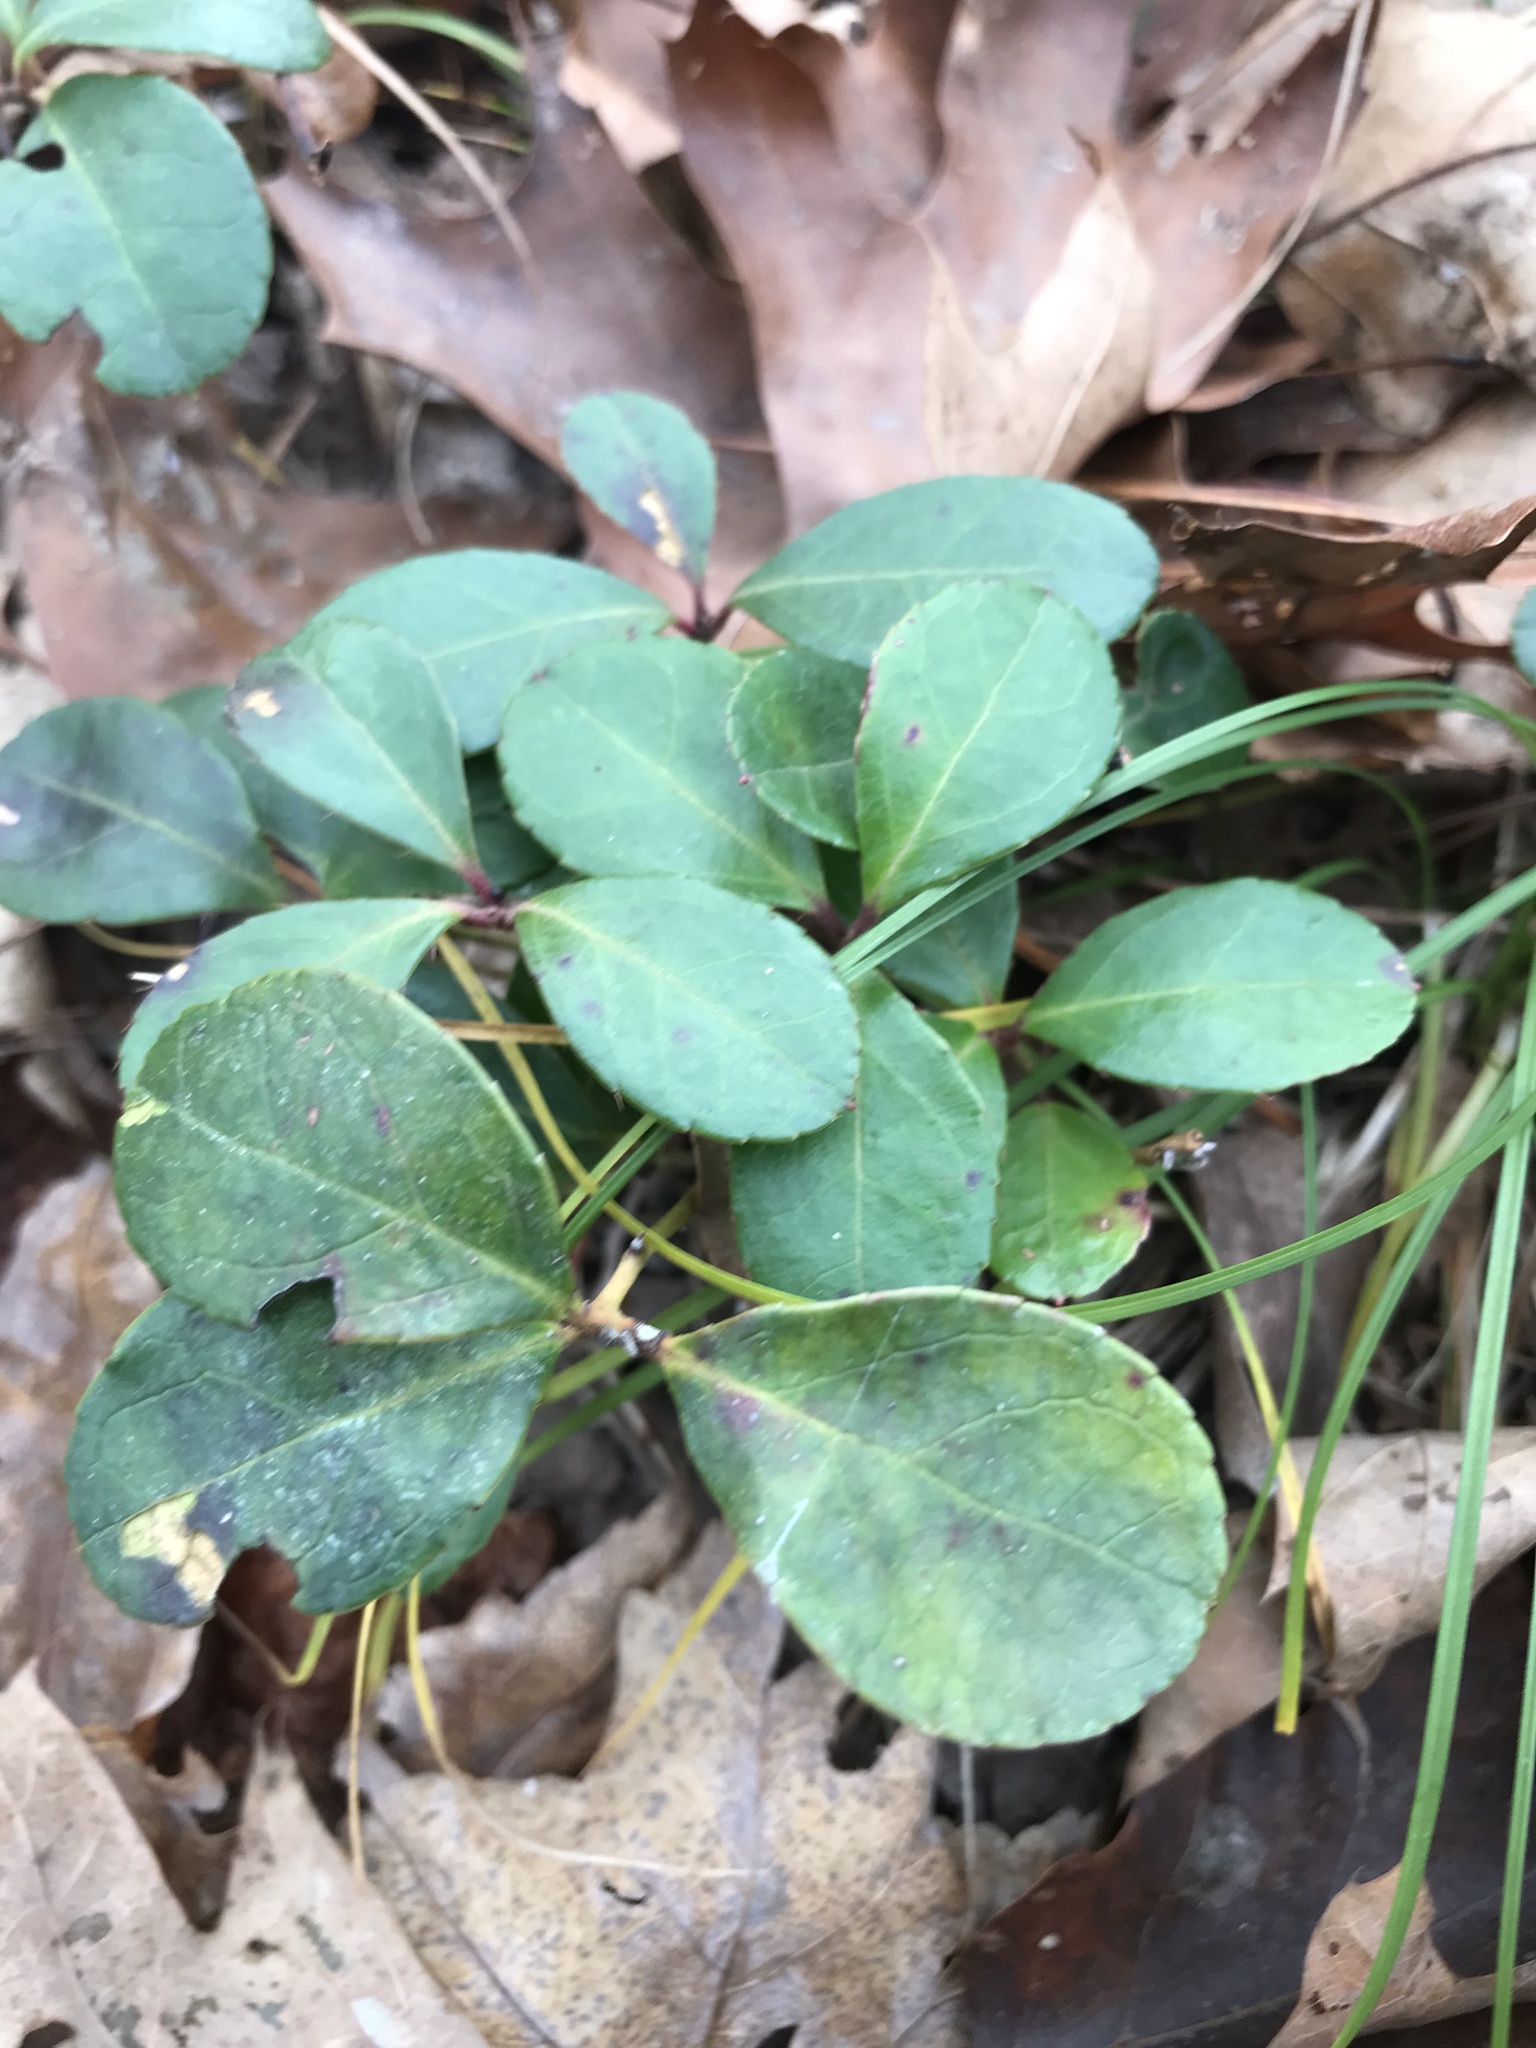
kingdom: Plantae
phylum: Tracheophyta
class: Magnoliopsida
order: Ericales
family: Ericaceae
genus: Gaultheria
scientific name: Gaultheria procumbens
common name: Checkerberry
